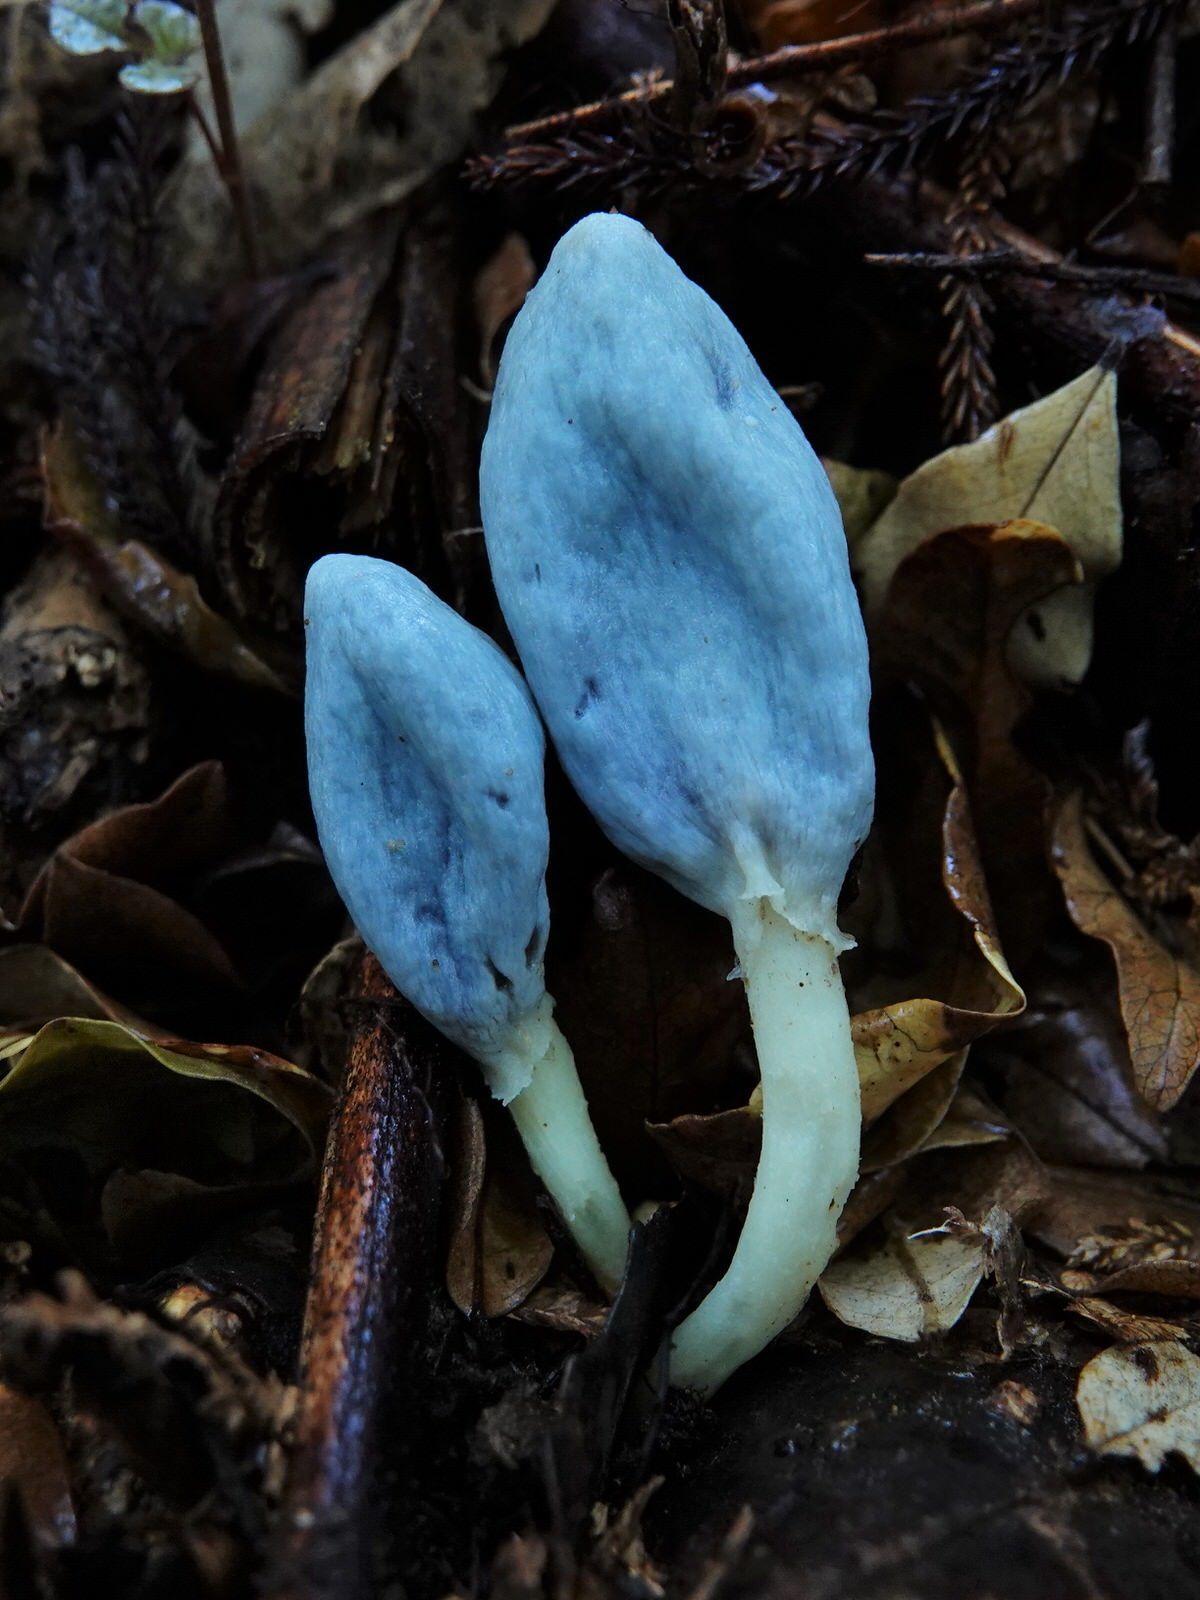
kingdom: Fungi
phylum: Basidiomycota
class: Agaricomycetes
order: Agaricales
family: Agaricaceae
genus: Clavogaster
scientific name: Clavogaster virescens
